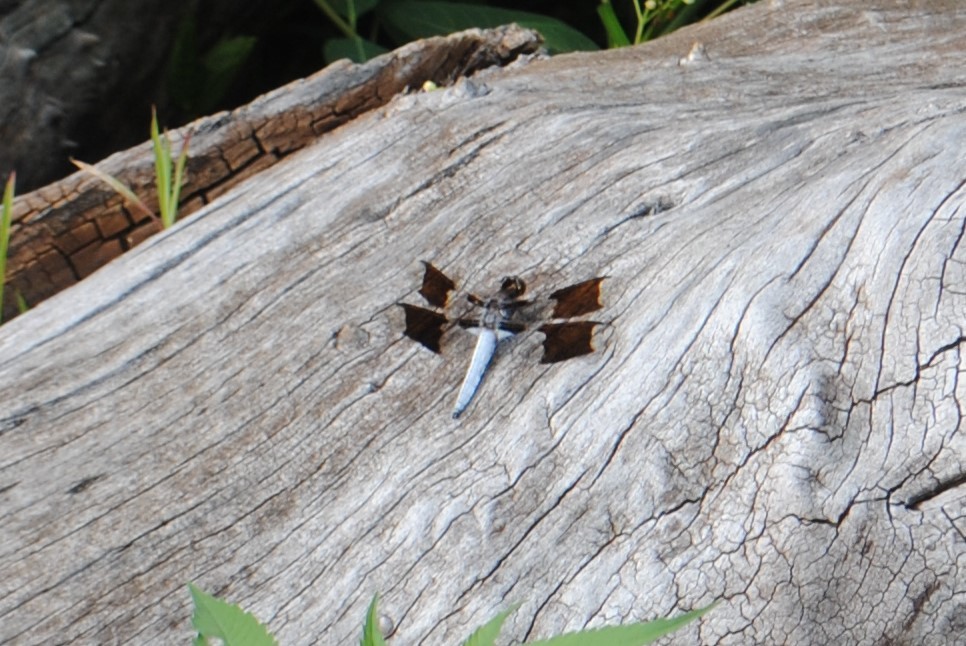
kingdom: Animalia
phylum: Arthropoda
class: Insecta
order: Odonata
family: Libellulidae
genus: Plathemis
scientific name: Plathemis lydia
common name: Common whitetail
